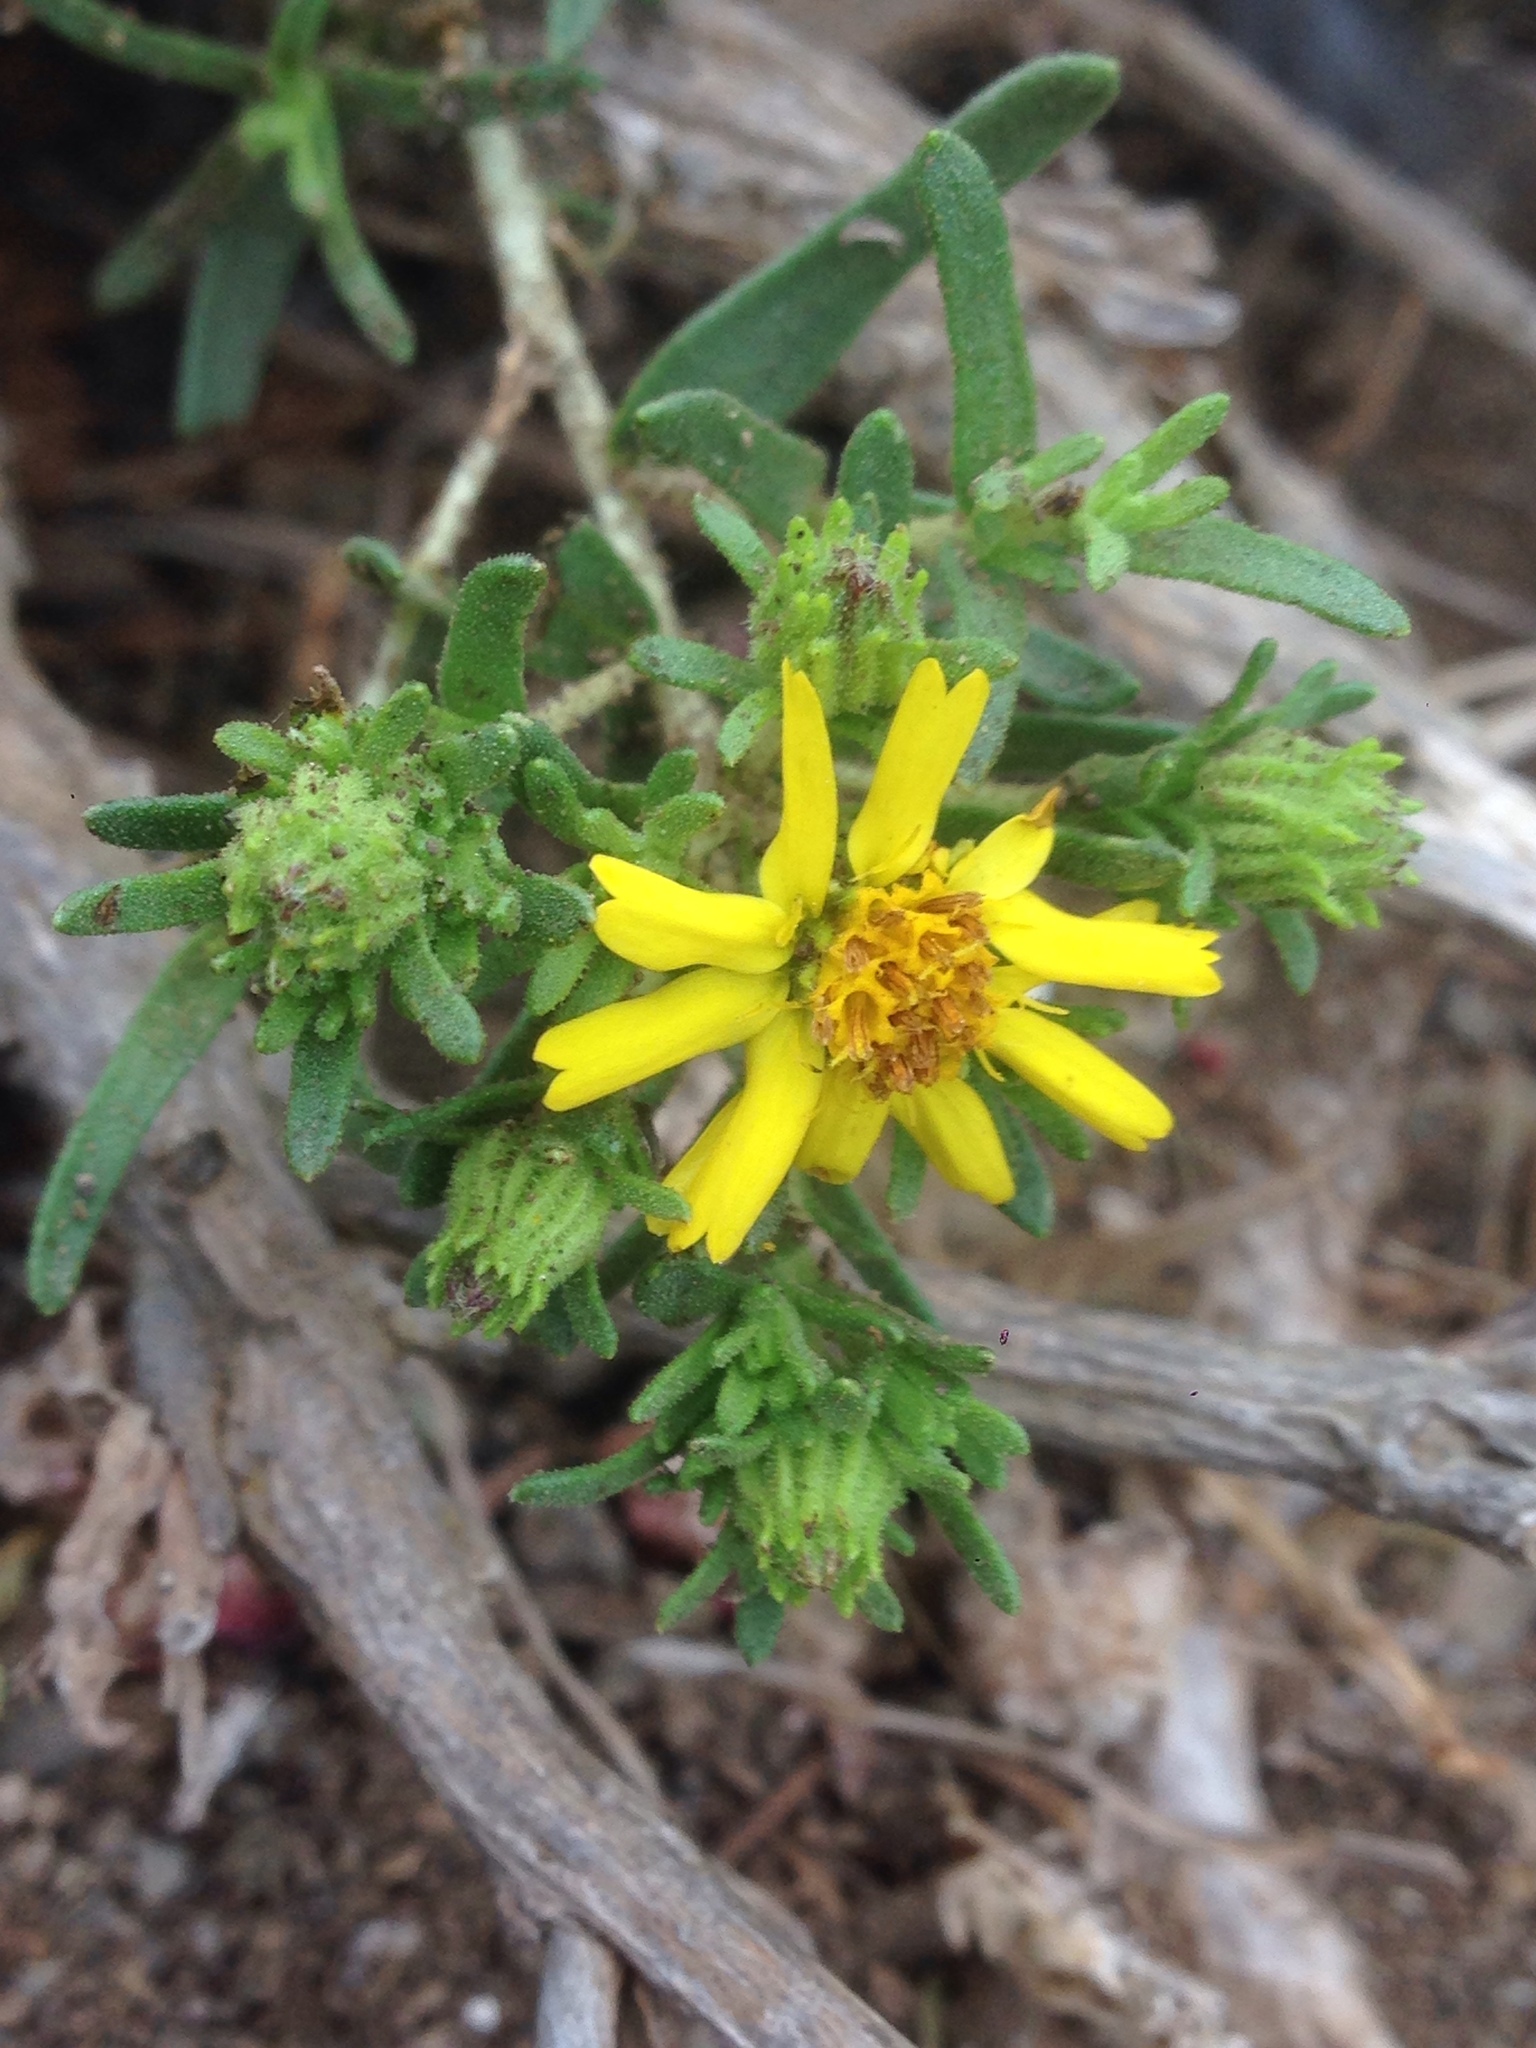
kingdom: Plantae
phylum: Tracheophyta
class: Magnoliopsida
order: Asterales
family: Asteraceae
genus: Deinandra
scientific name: Deinandra clementina
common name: Island tarplant
